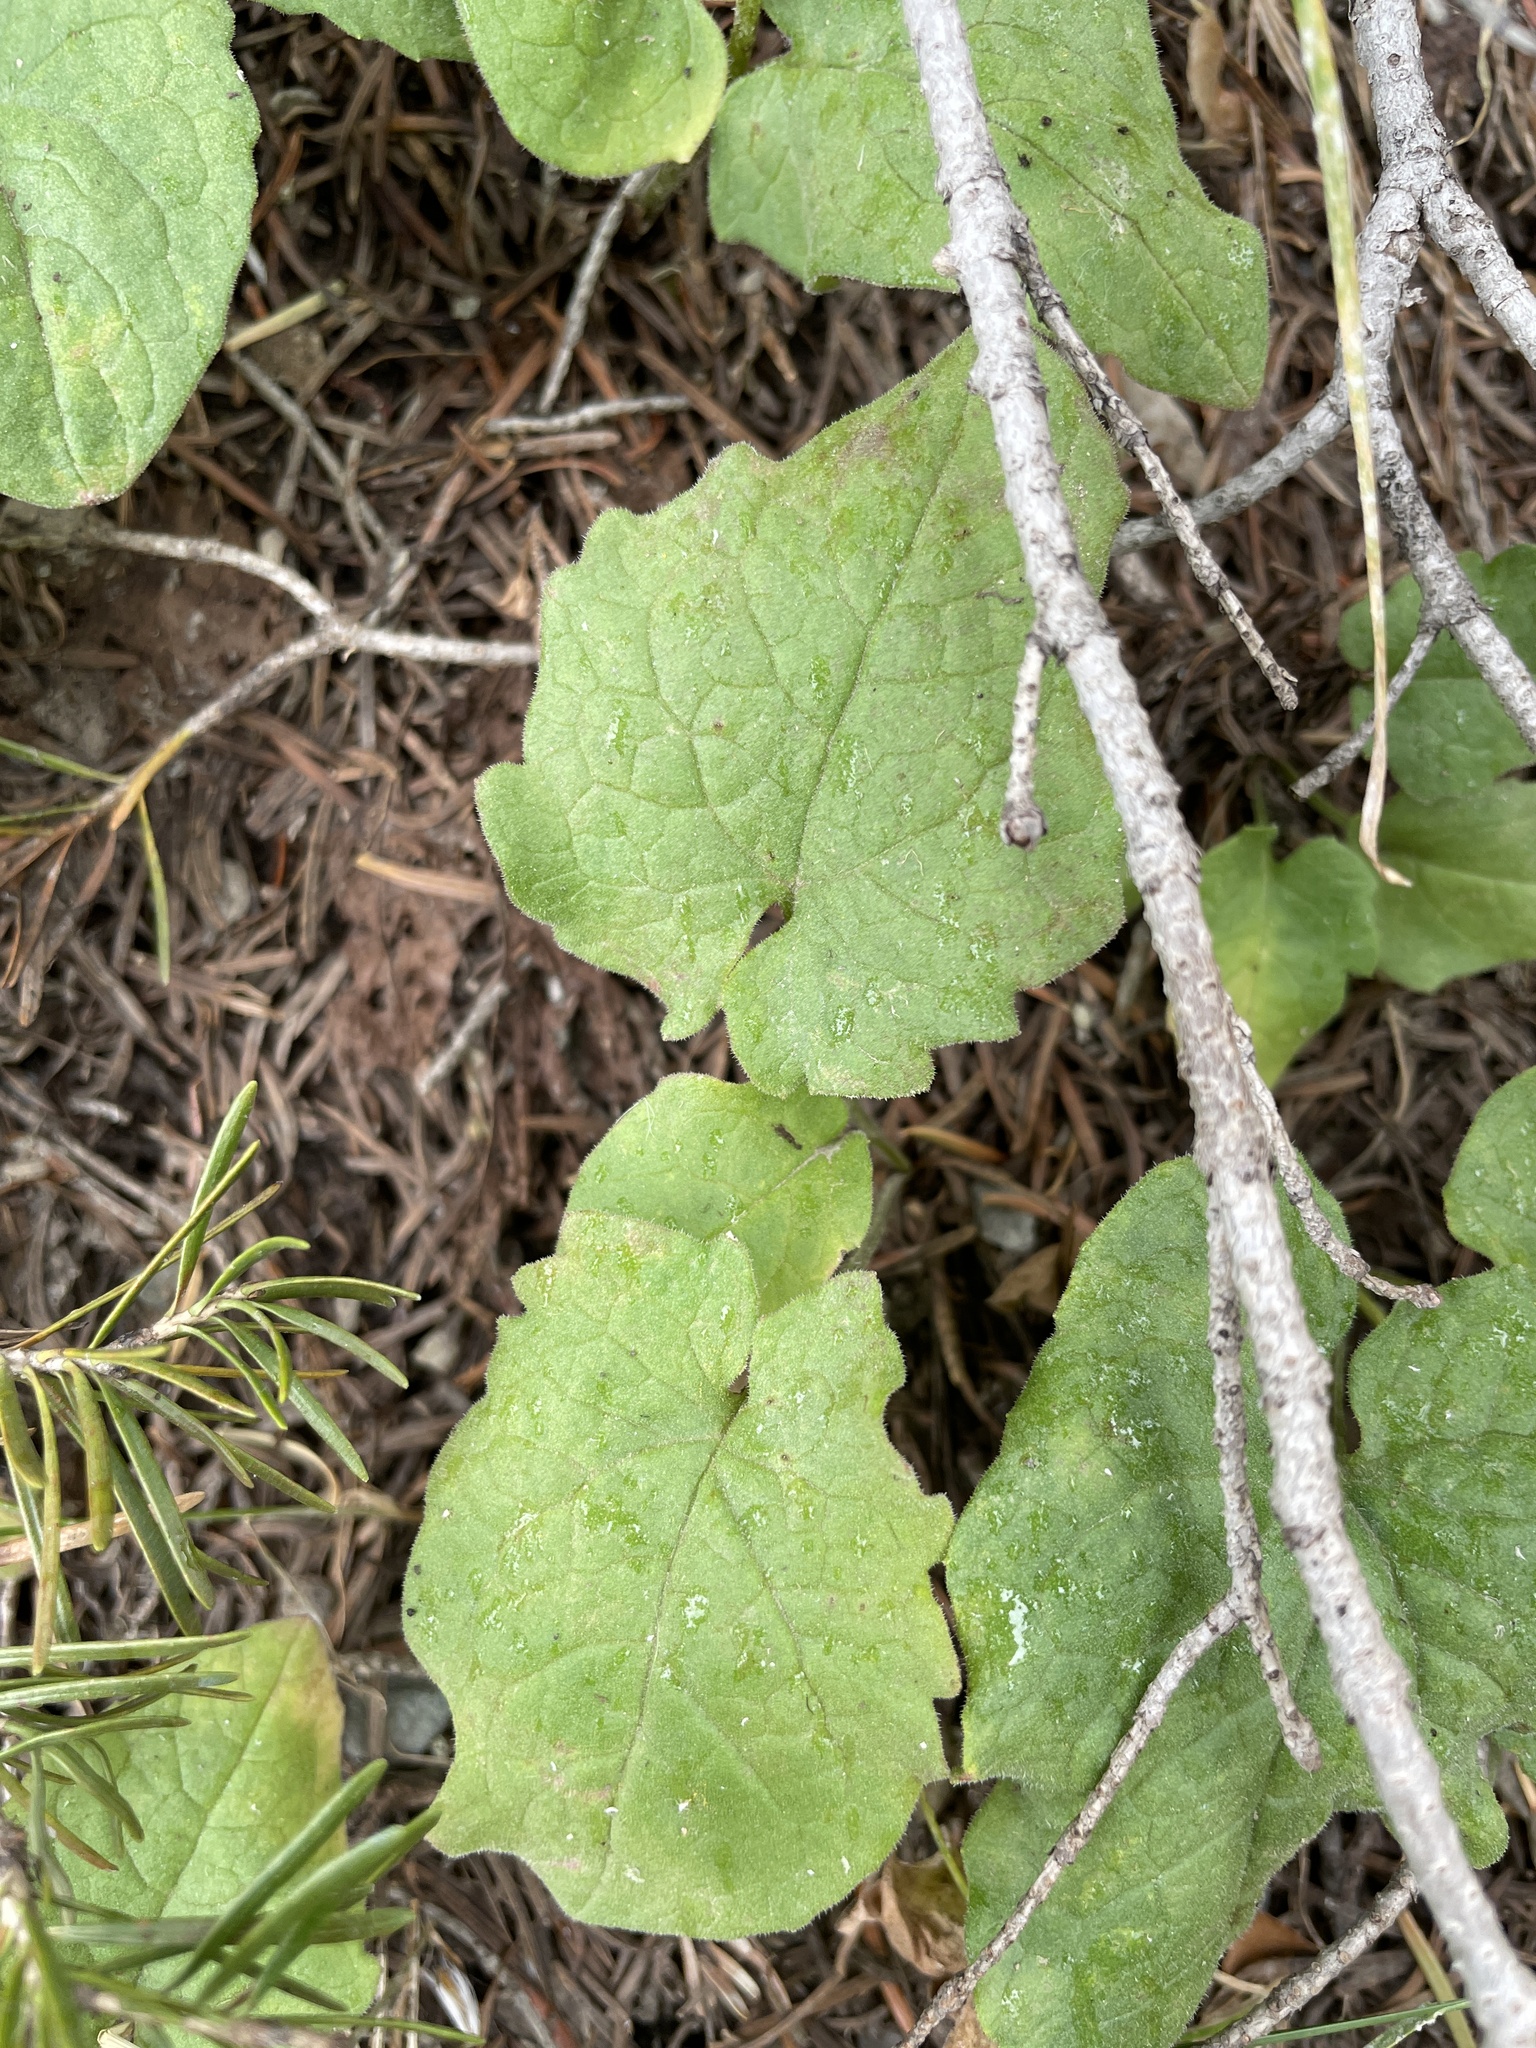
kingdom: Plantae
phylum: Tracheophyta
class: Magnoliopsida
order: Asterales
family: Asteraceae
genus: Arnica
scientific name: Arnica cordifolia
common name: Heart-leaf arnica
